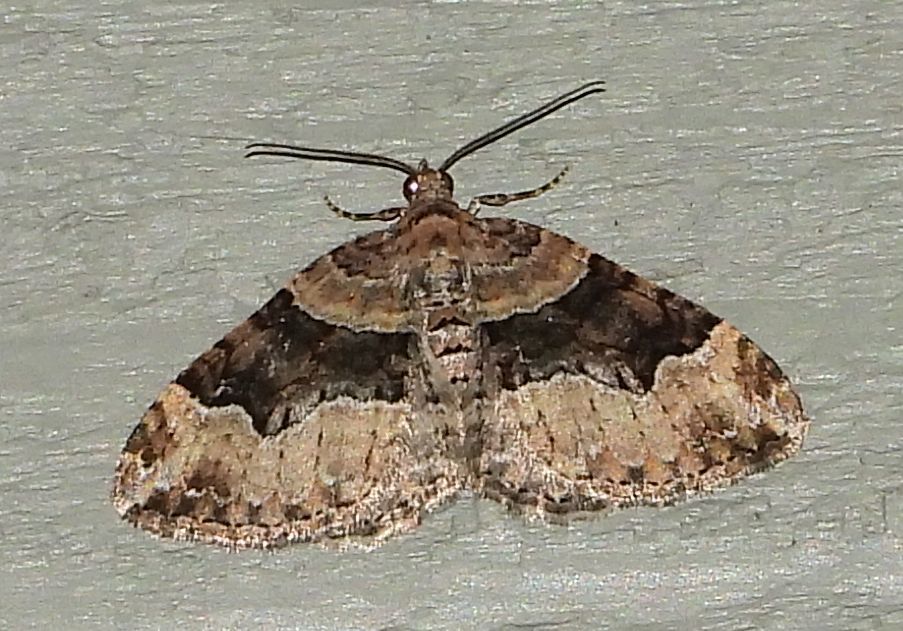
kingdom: Animalia
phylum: Arthropoda
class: Insecta
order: Lepidoptera
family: Geometridae
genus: Xanthorhoe
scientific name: Xanthorhoe lacustrata
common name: Toothed brown carpet
